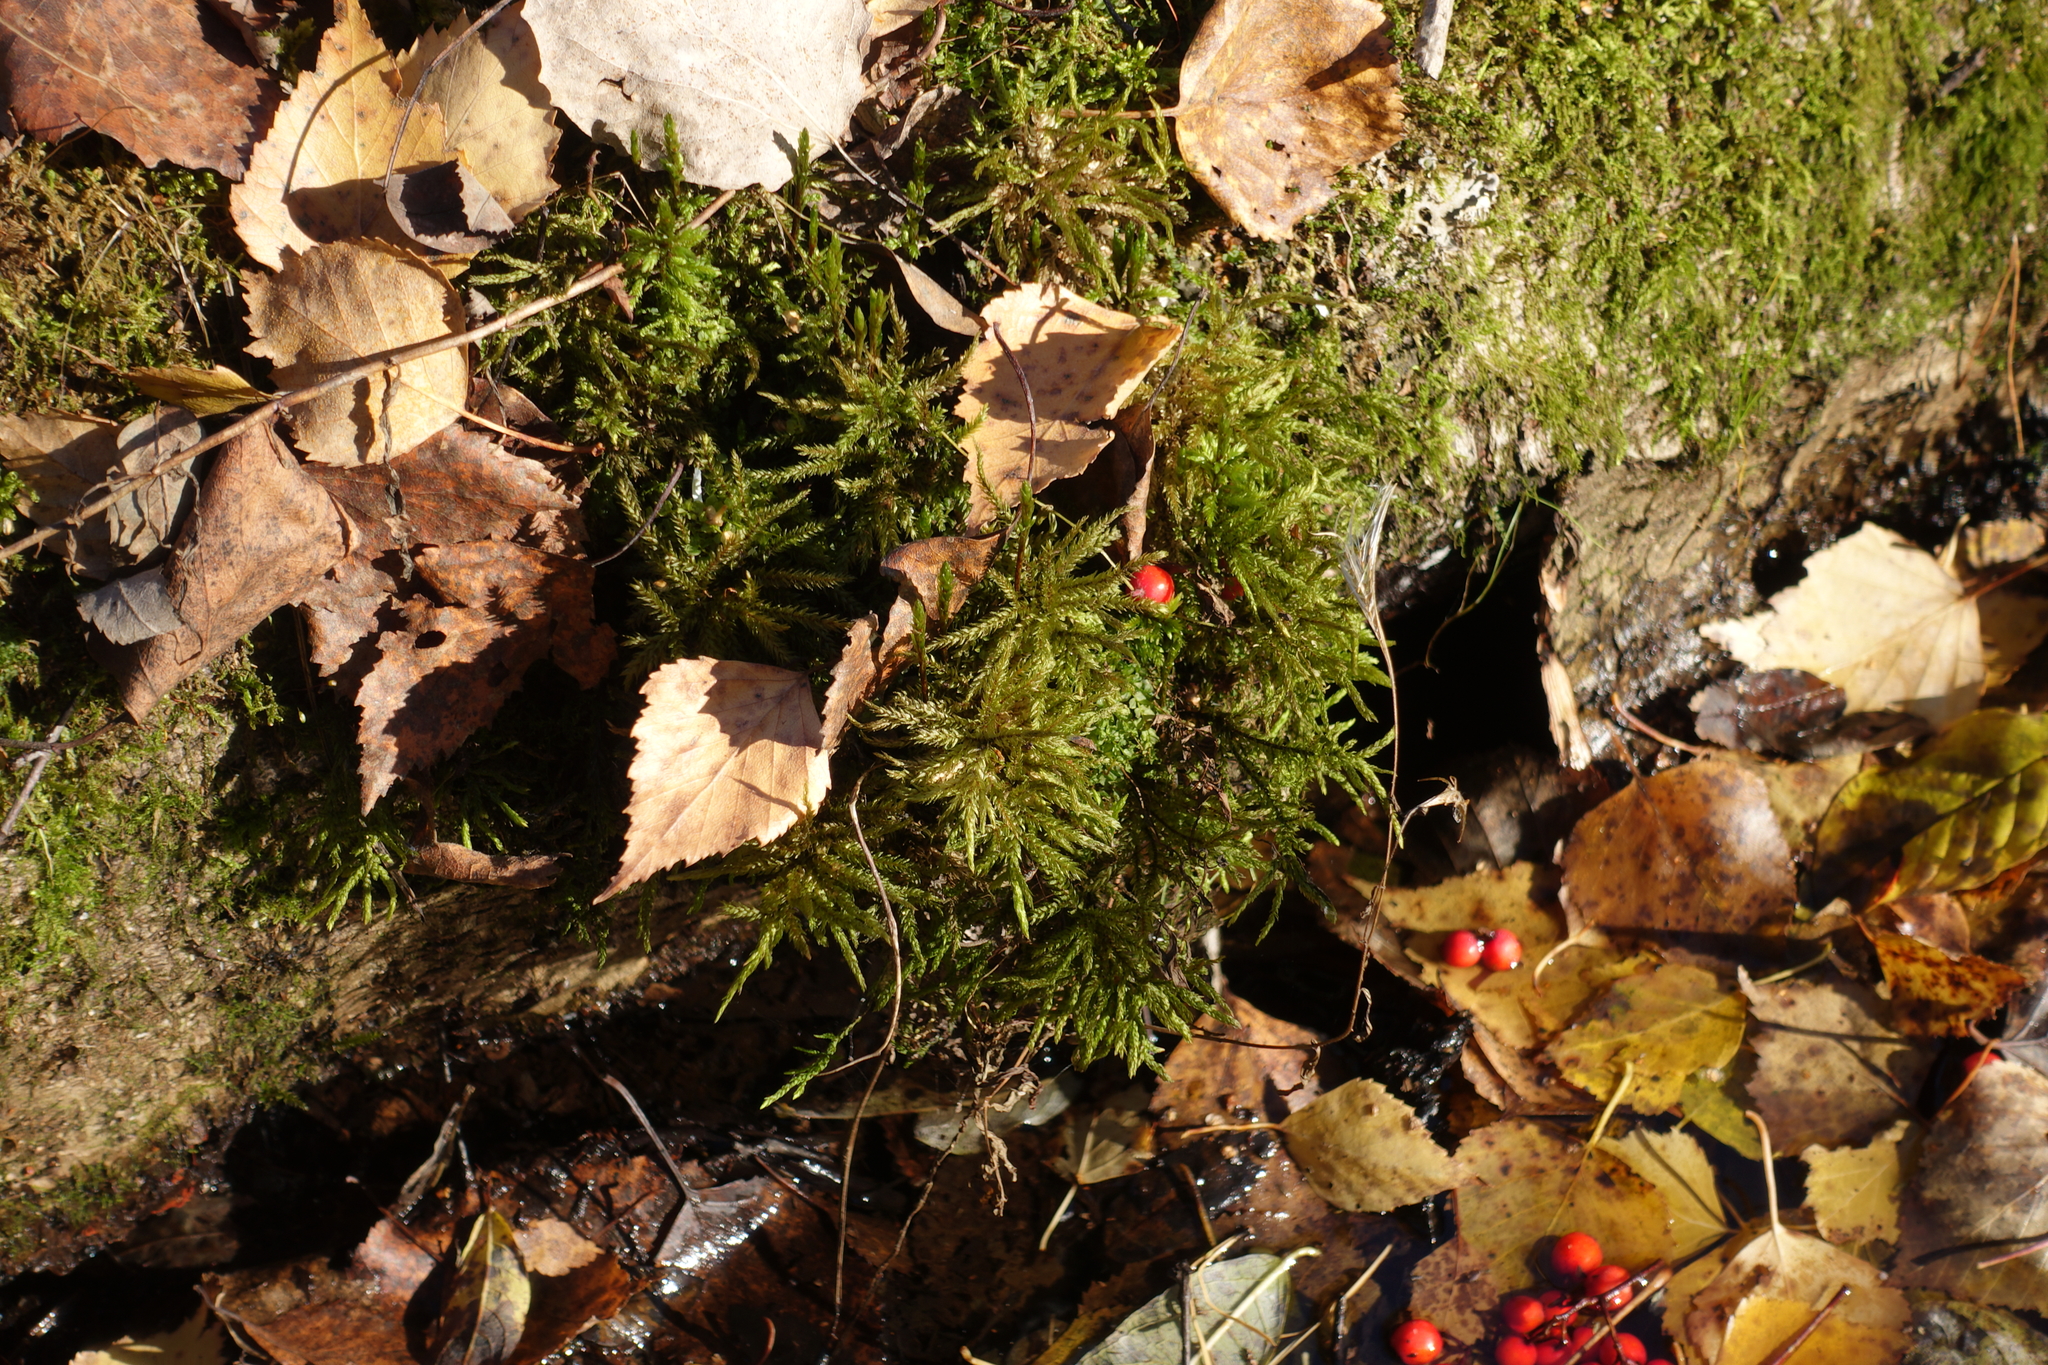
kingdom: Plantae
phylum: Bryophyta
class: Bryopsida
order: Hypnales
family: Climaciaceae
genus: Climacium
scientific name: Climacium dendroides
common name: Northern tree moss
